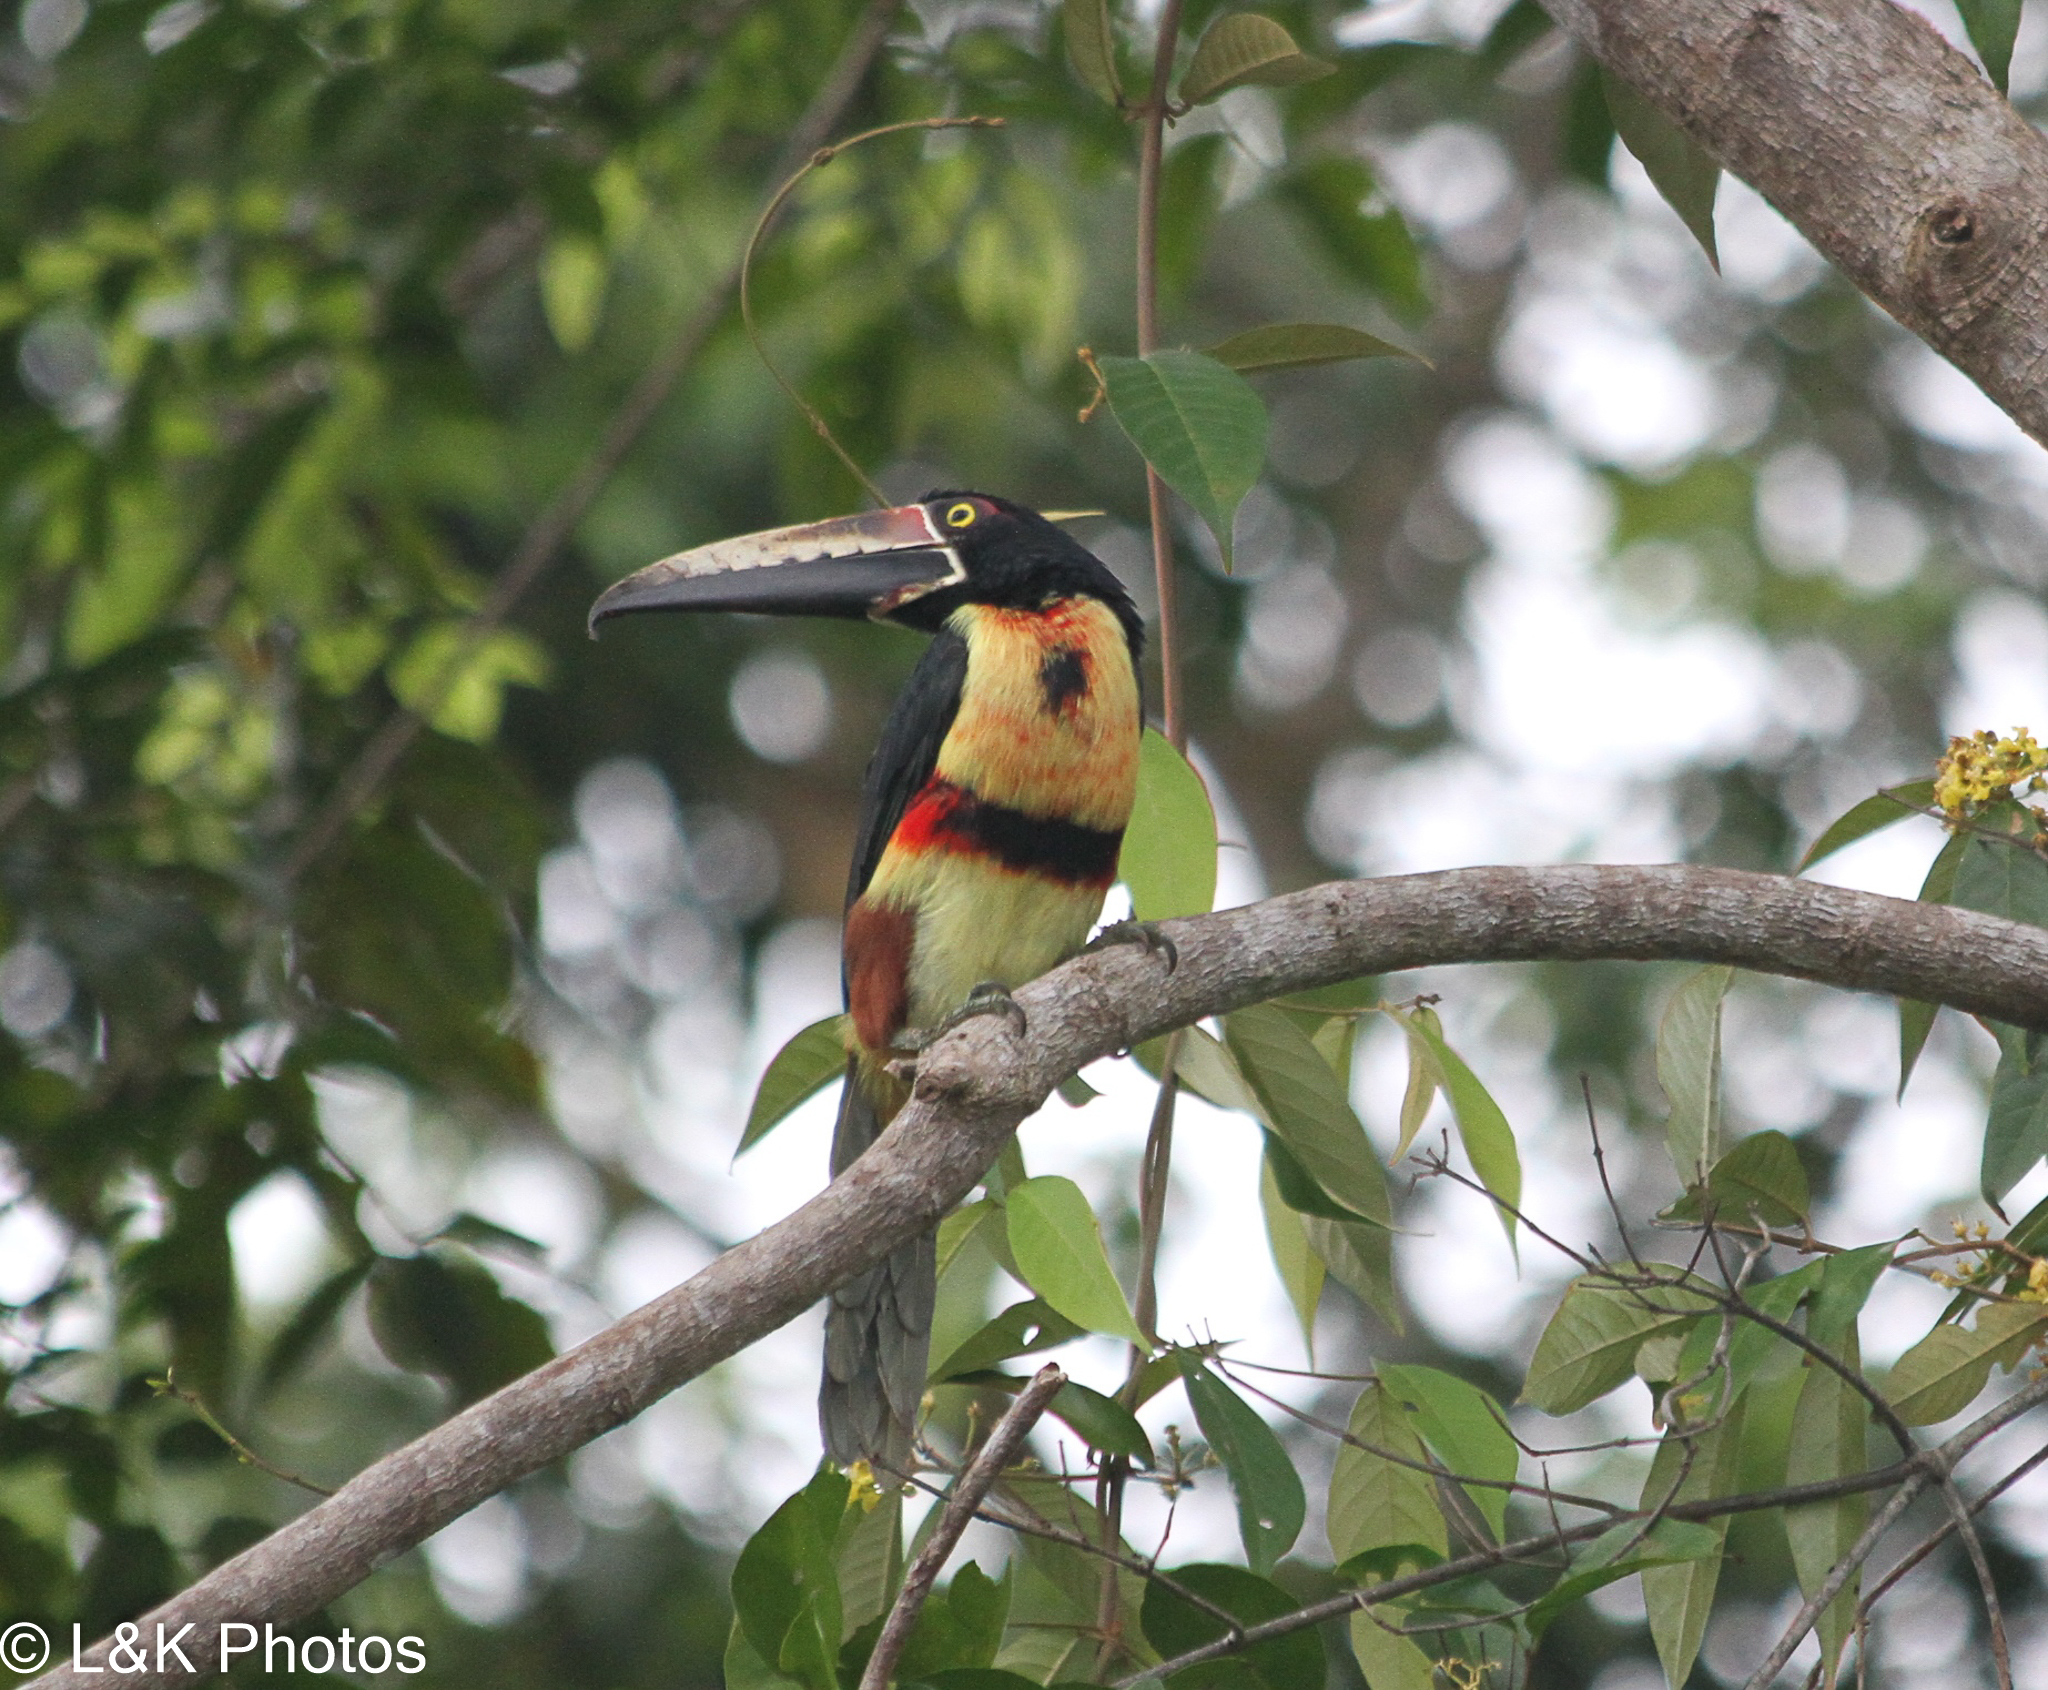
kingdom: Animalia
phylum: Chordata
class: Aves
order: Piciformes
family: Ramphastidae
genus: Pteroglossus
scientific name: Pteroglossus torquatus
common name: Collared aracari
